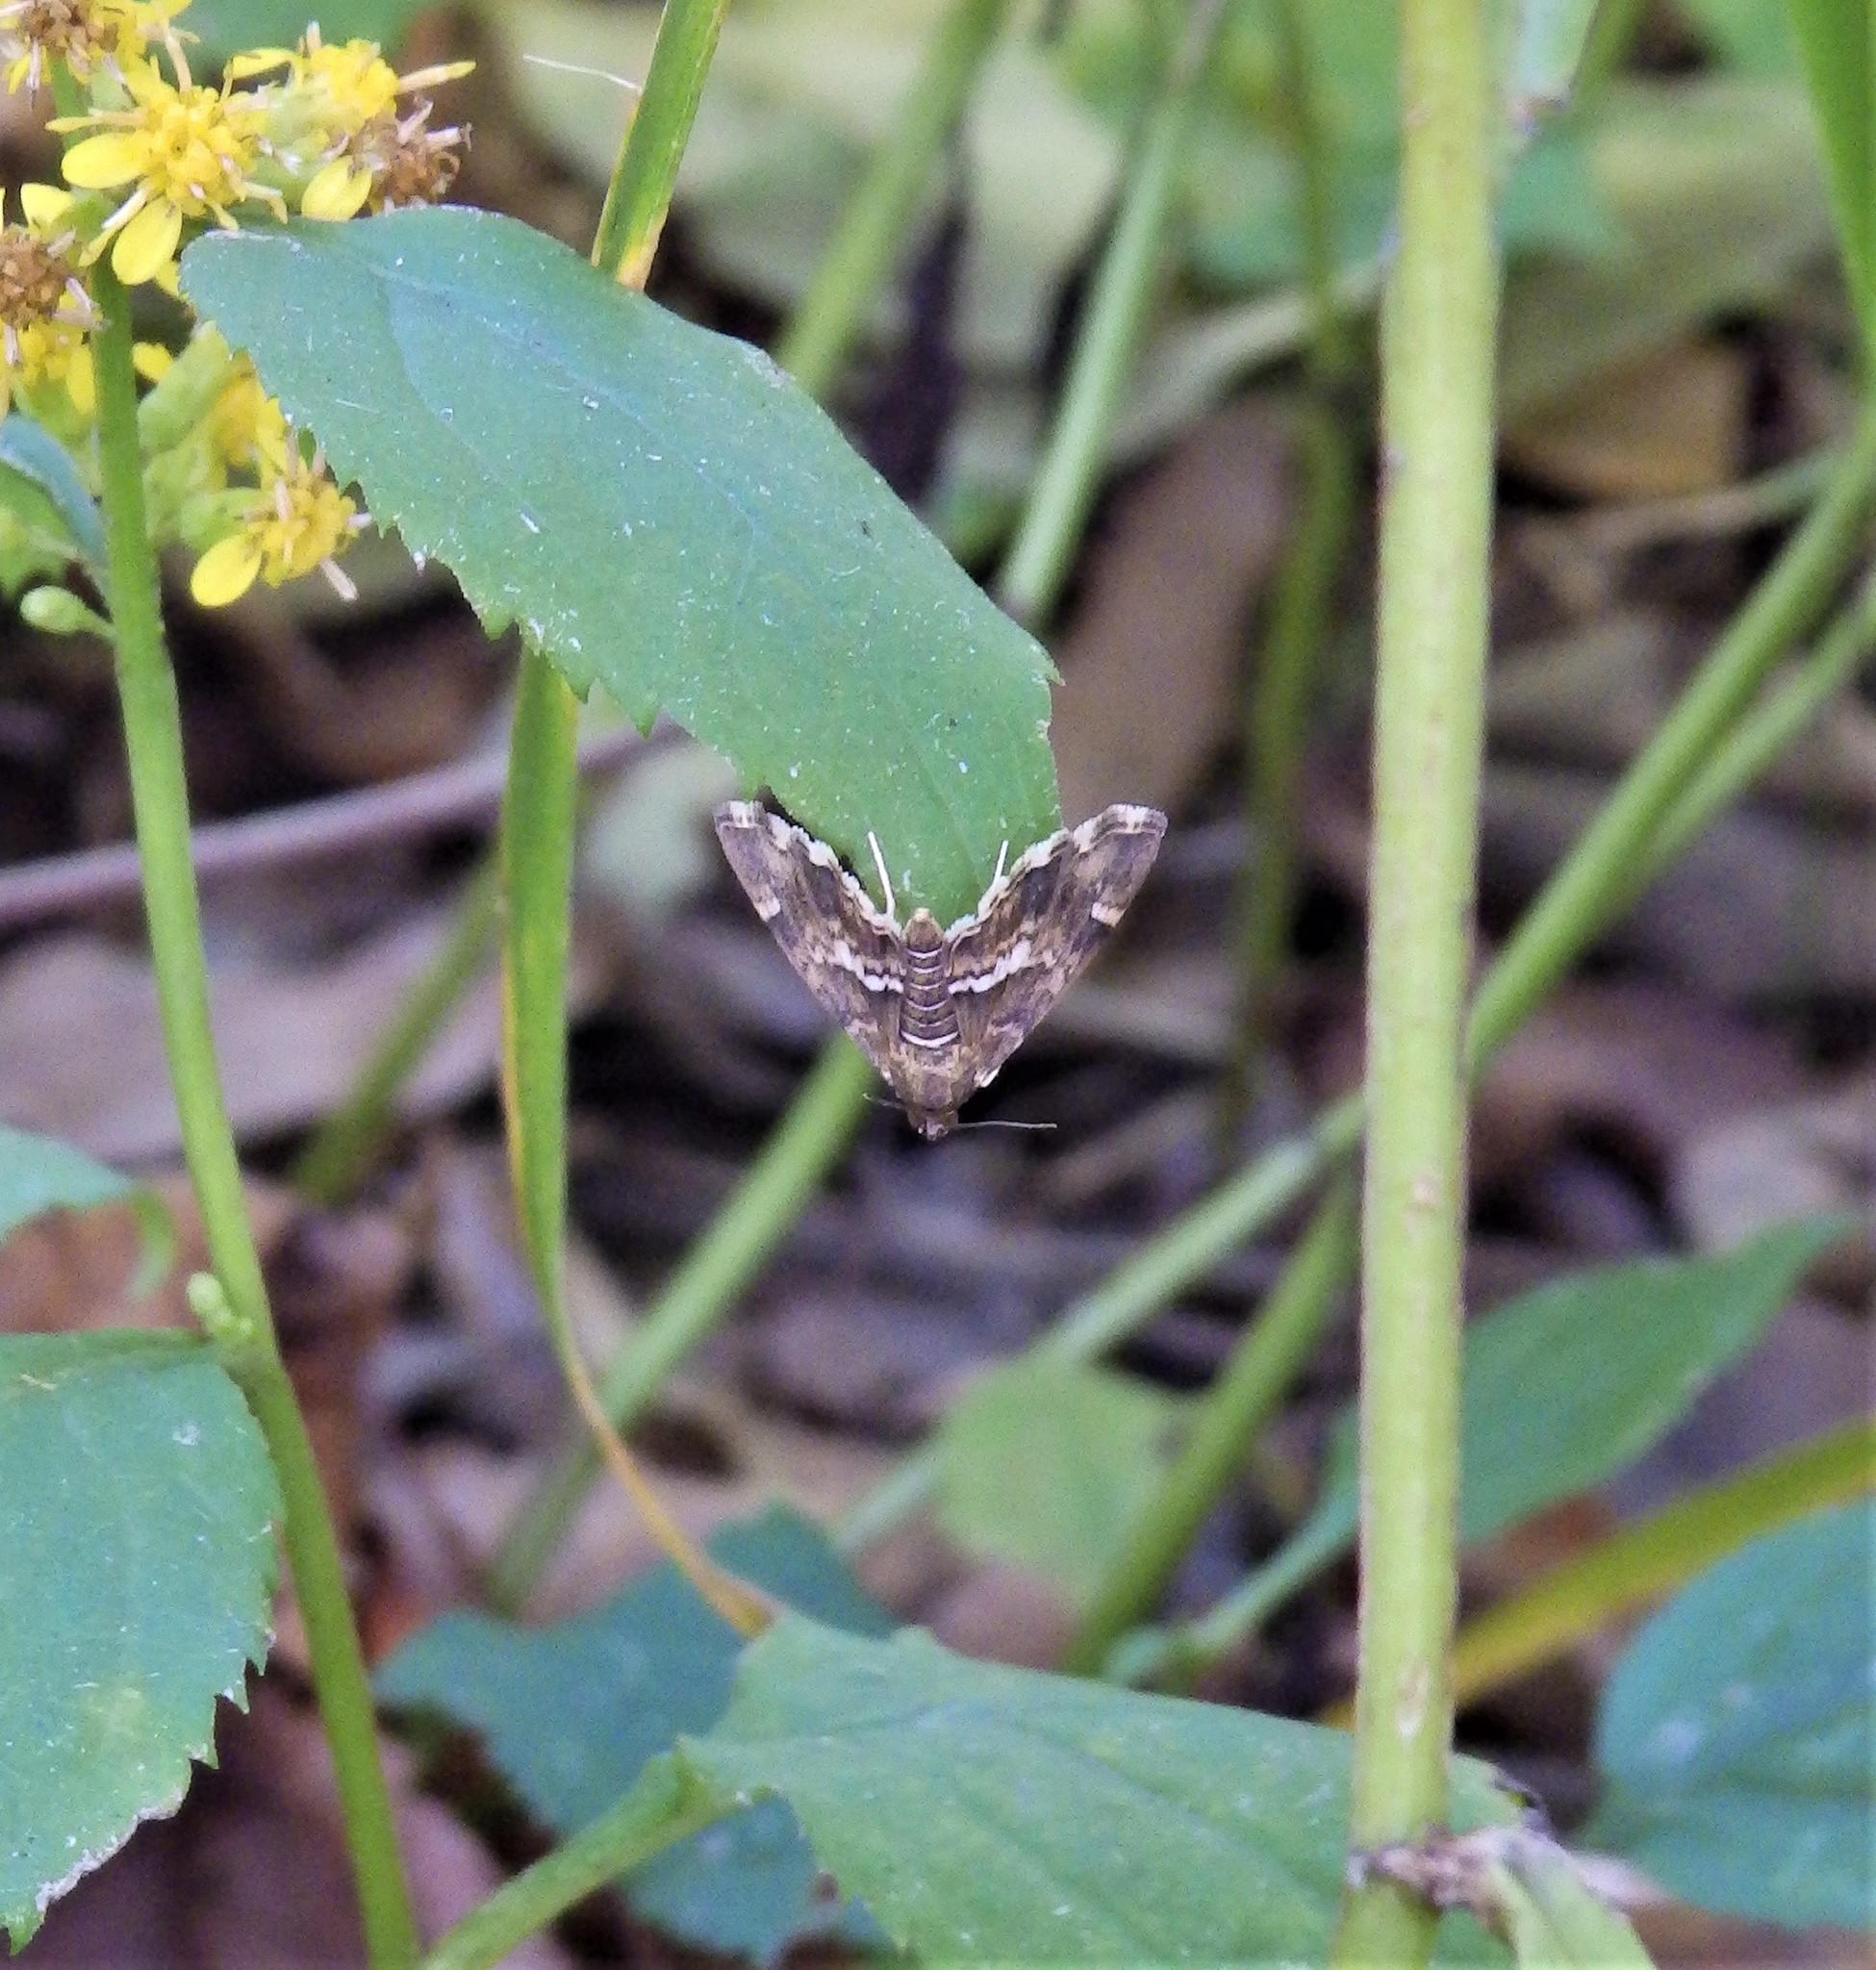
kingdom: Animalia
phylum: Arthropoda
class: Insecta
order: Lepidoptera
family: Crambidae
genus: Hymenia
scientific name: Hymenia perspectalis
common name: Spotted beet webworm
